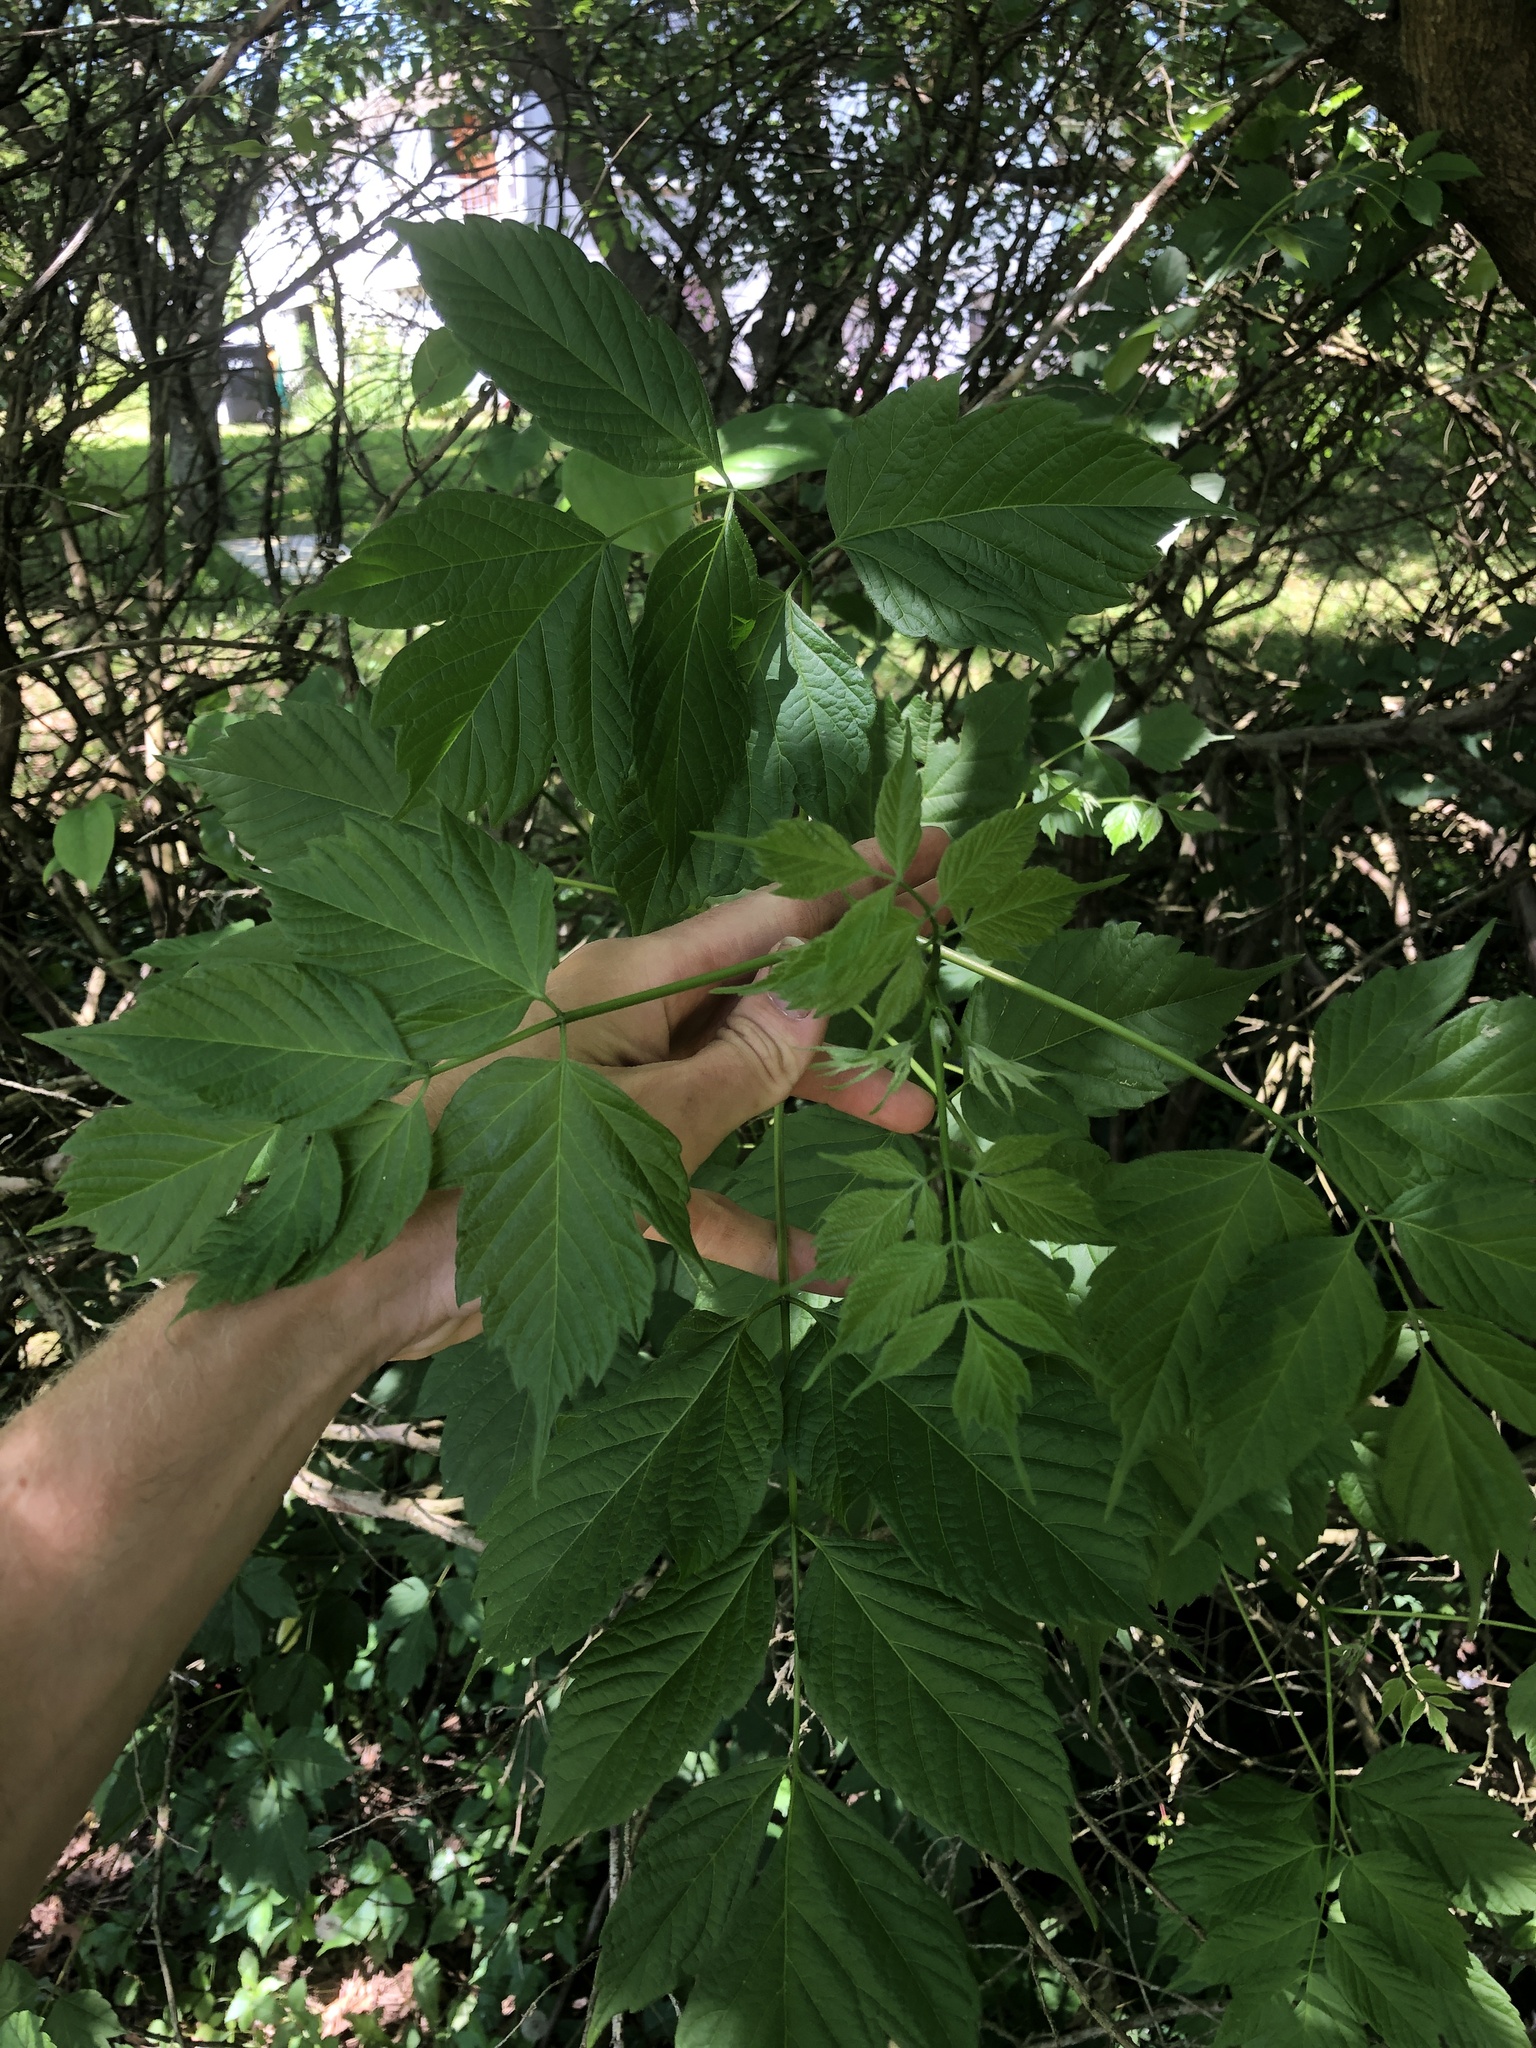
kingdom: Plantae
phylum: Tracheophyta
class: Magnoliopsida
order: Sapindales
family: Sapindaceae
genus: Acer
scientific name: Acer negundo
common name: Ashleaf maple
